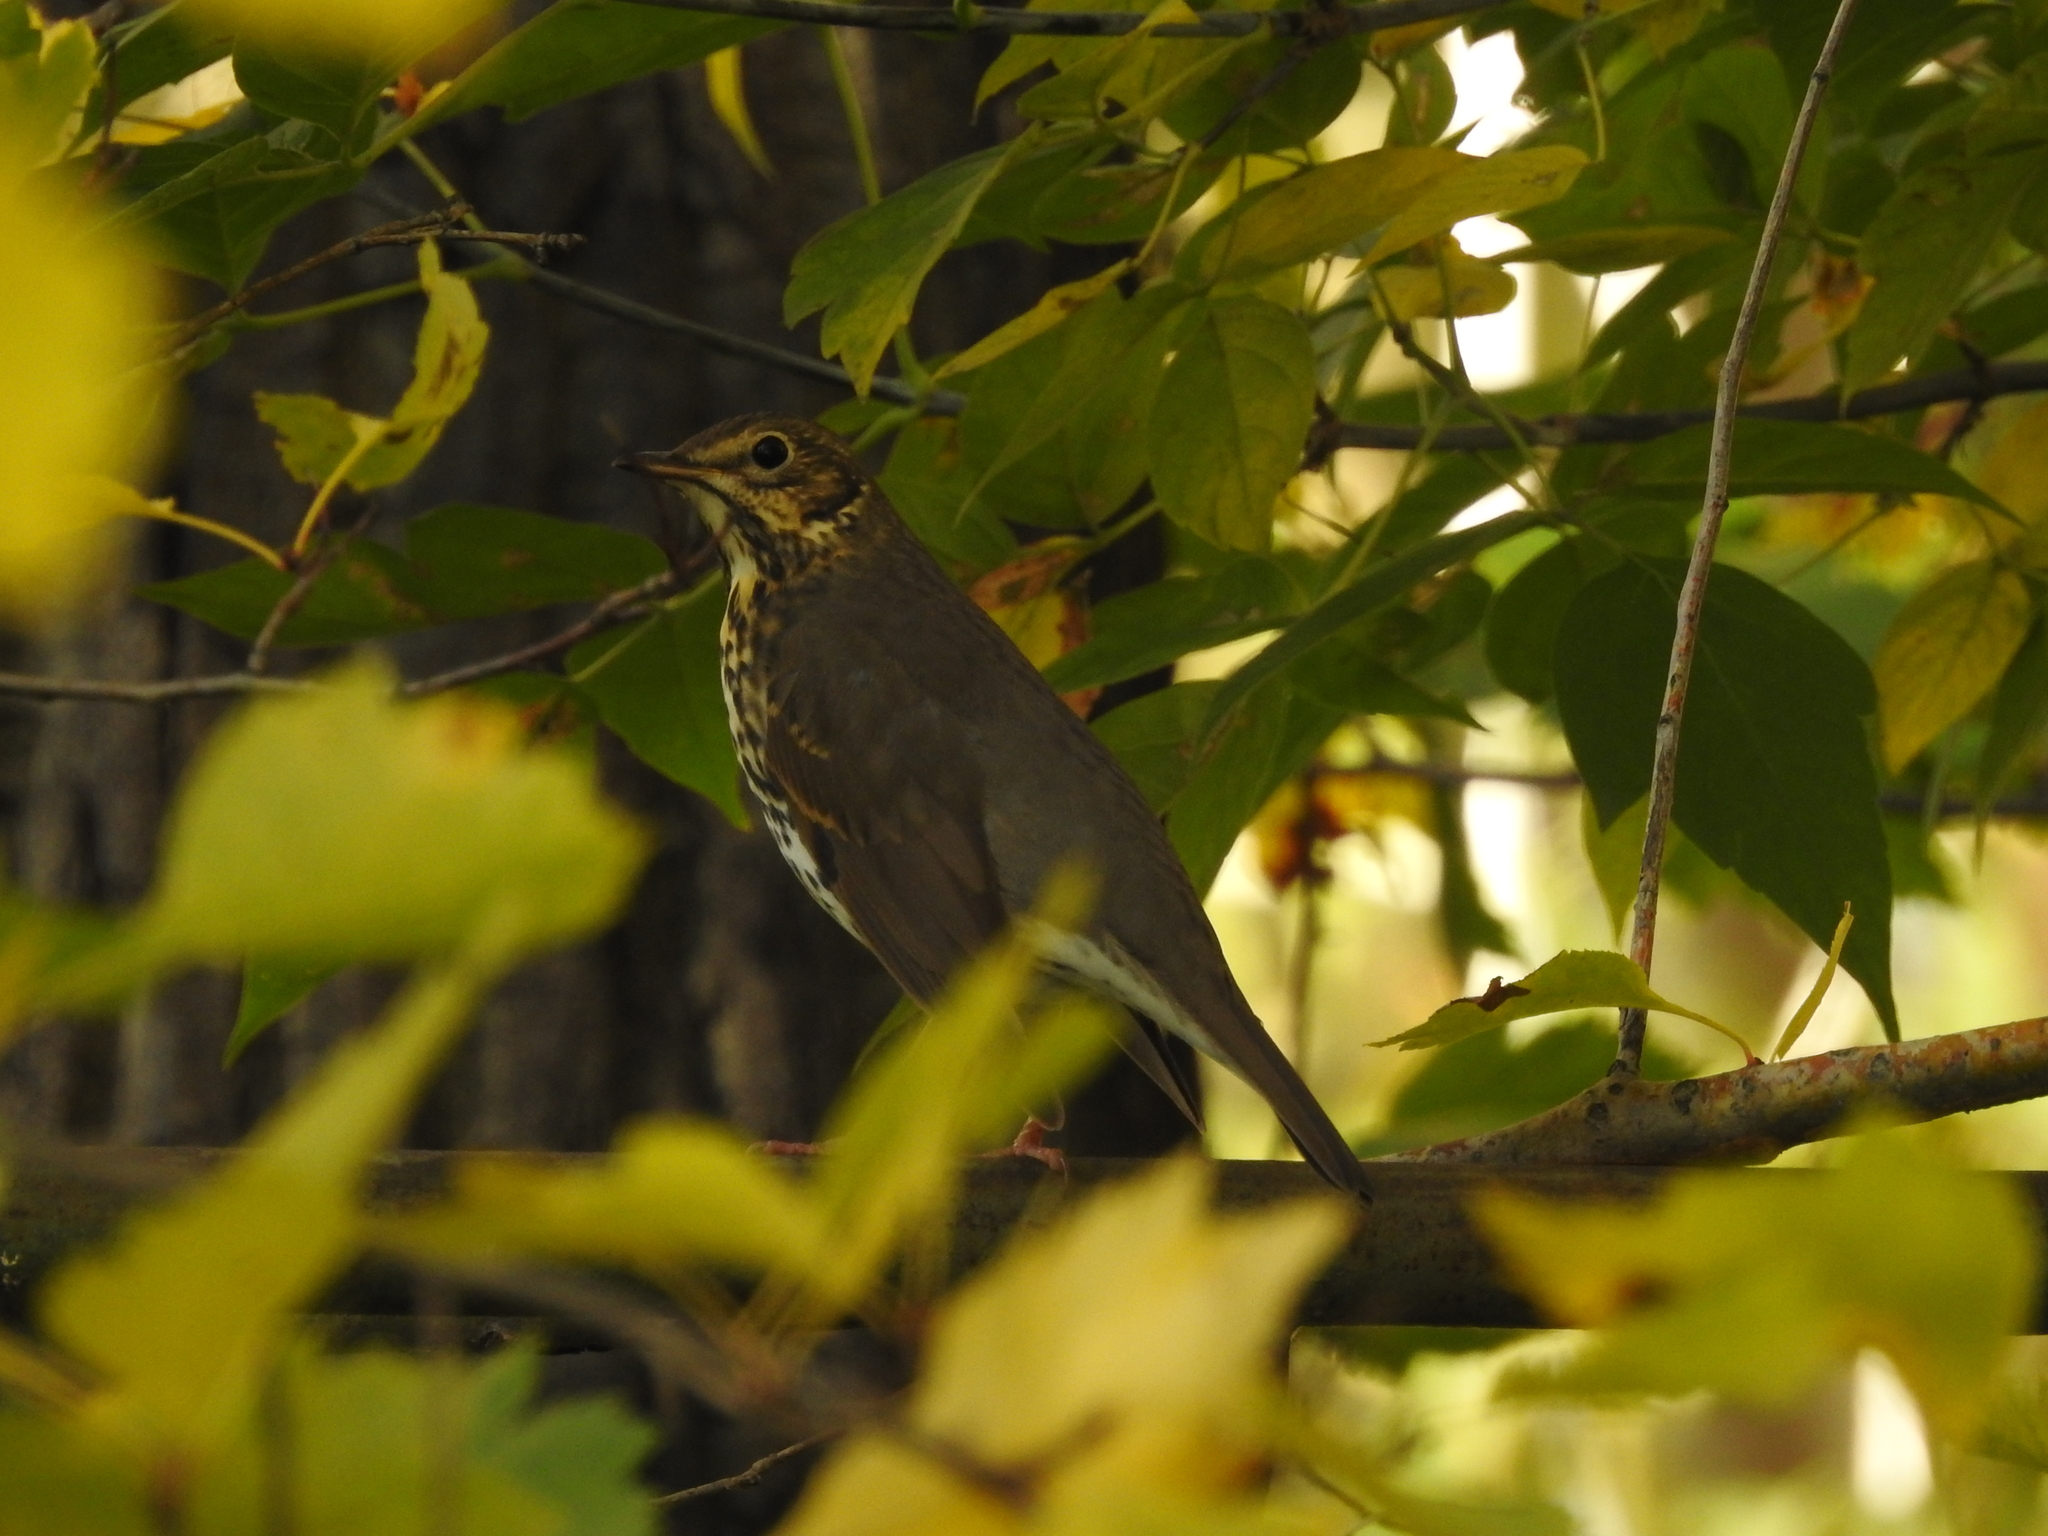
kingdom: Animalia
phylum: Chordata
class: Aves
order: Passeriformes
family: Turdidae
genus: Turdus
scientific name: Turdus philomelos
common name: Song thrush
